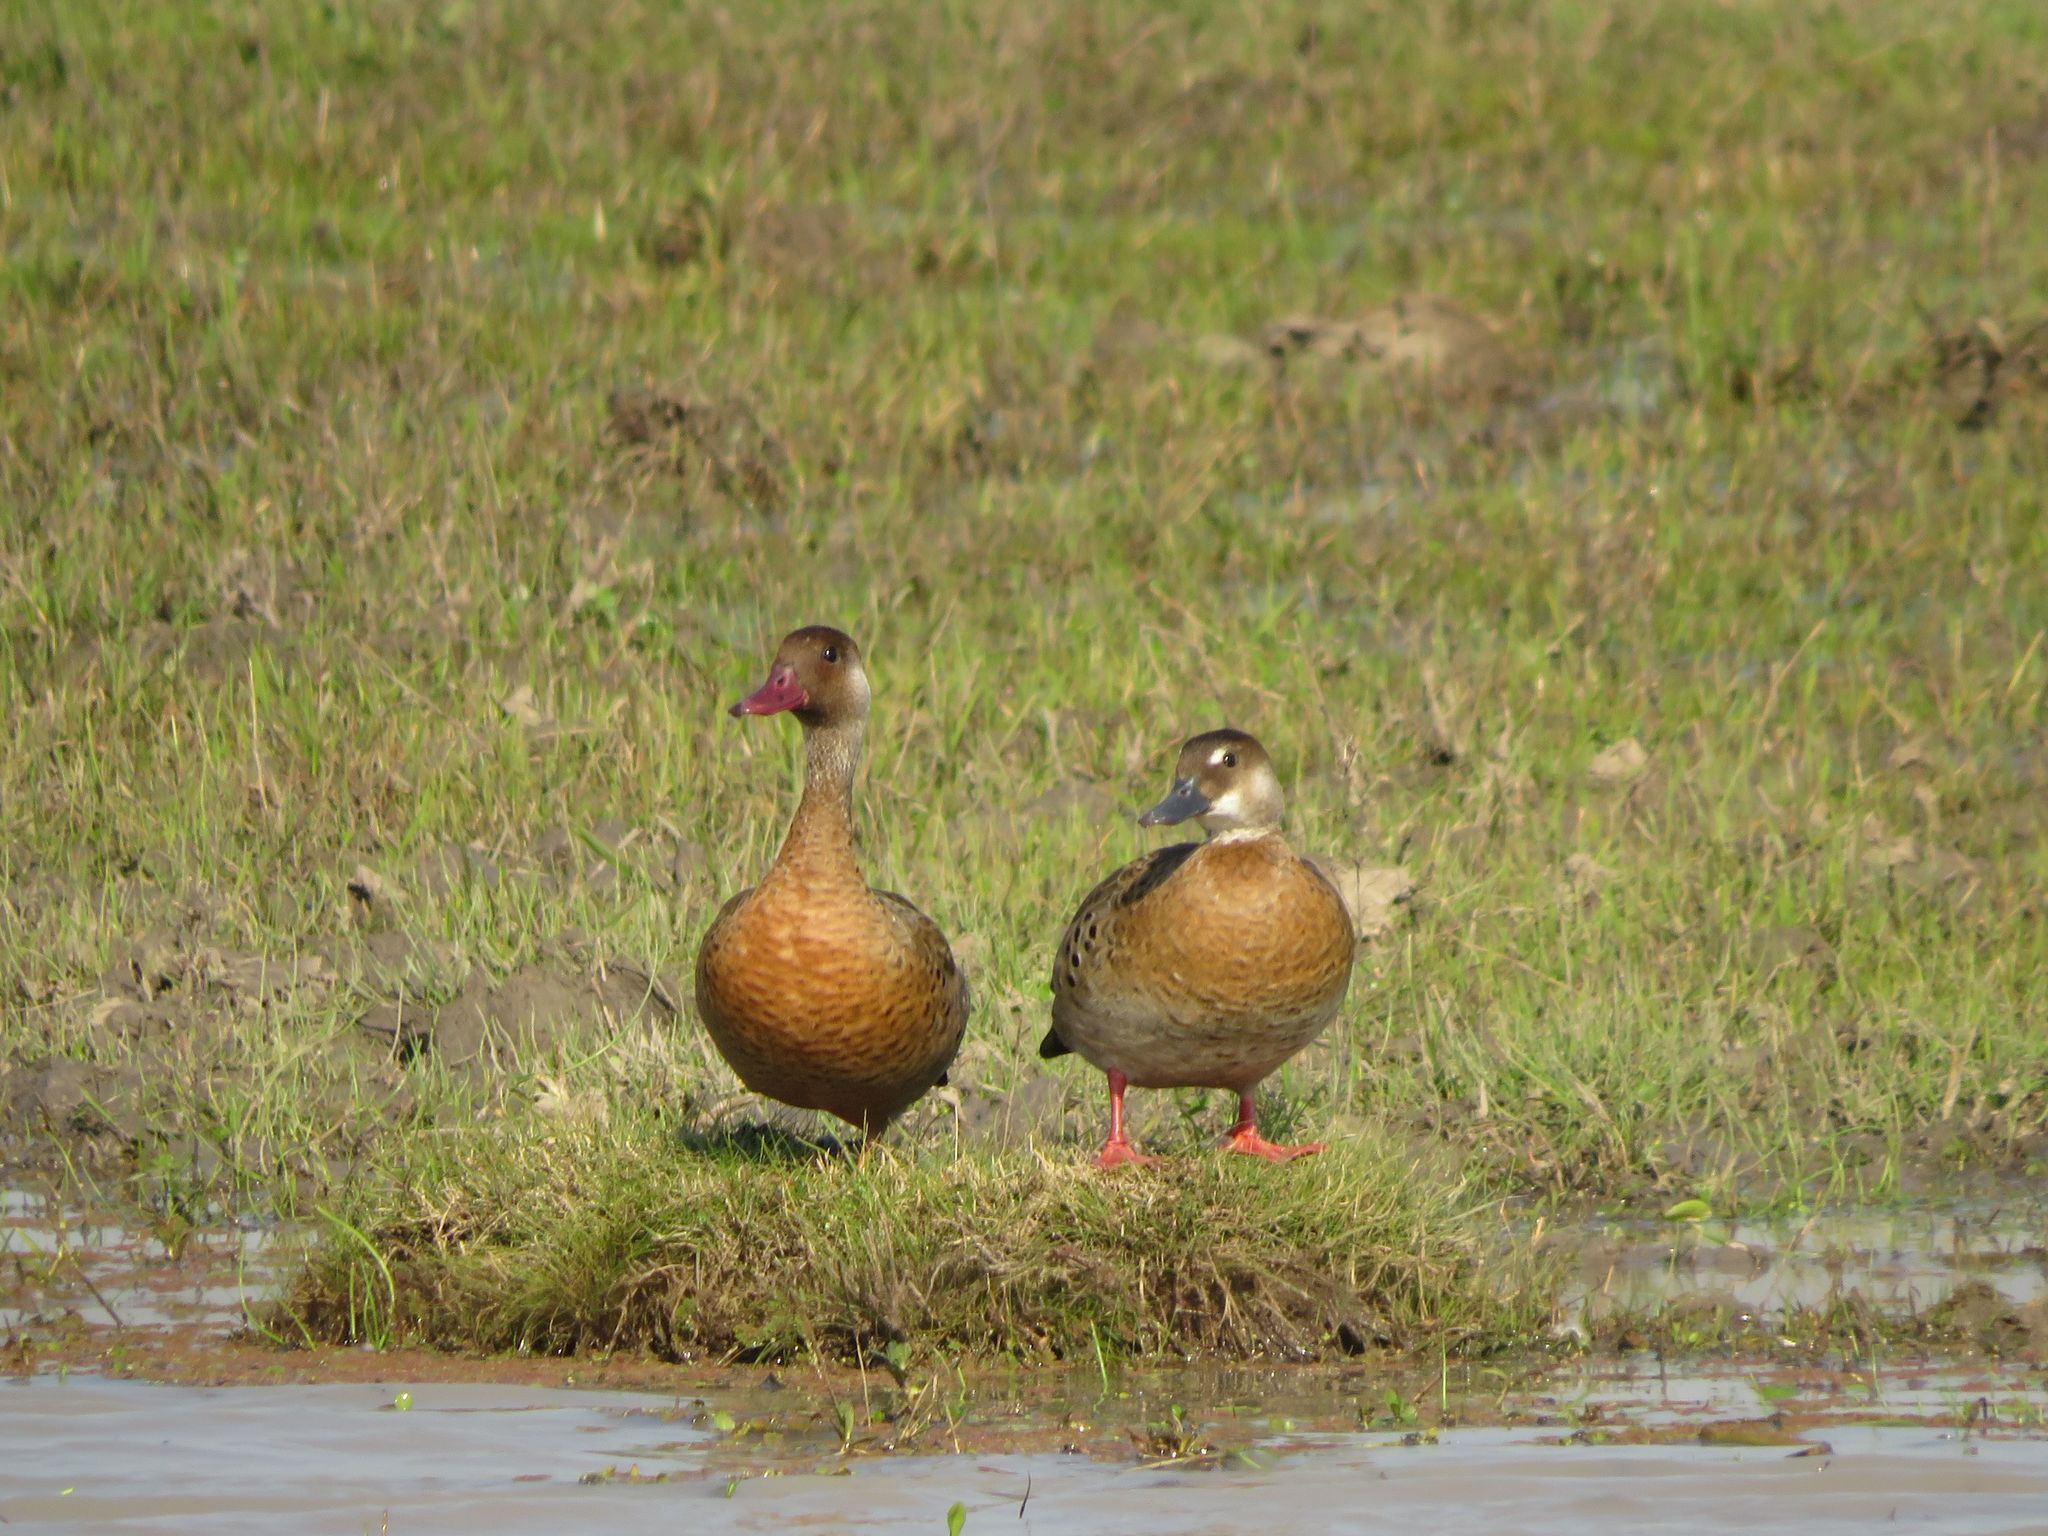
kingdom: Animalia
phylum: Chordata
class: Aves
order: Anseriformes
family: Anatidae
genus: Amazonetta
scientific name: Amazonetta brasiliensis
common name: Brazilian teal
